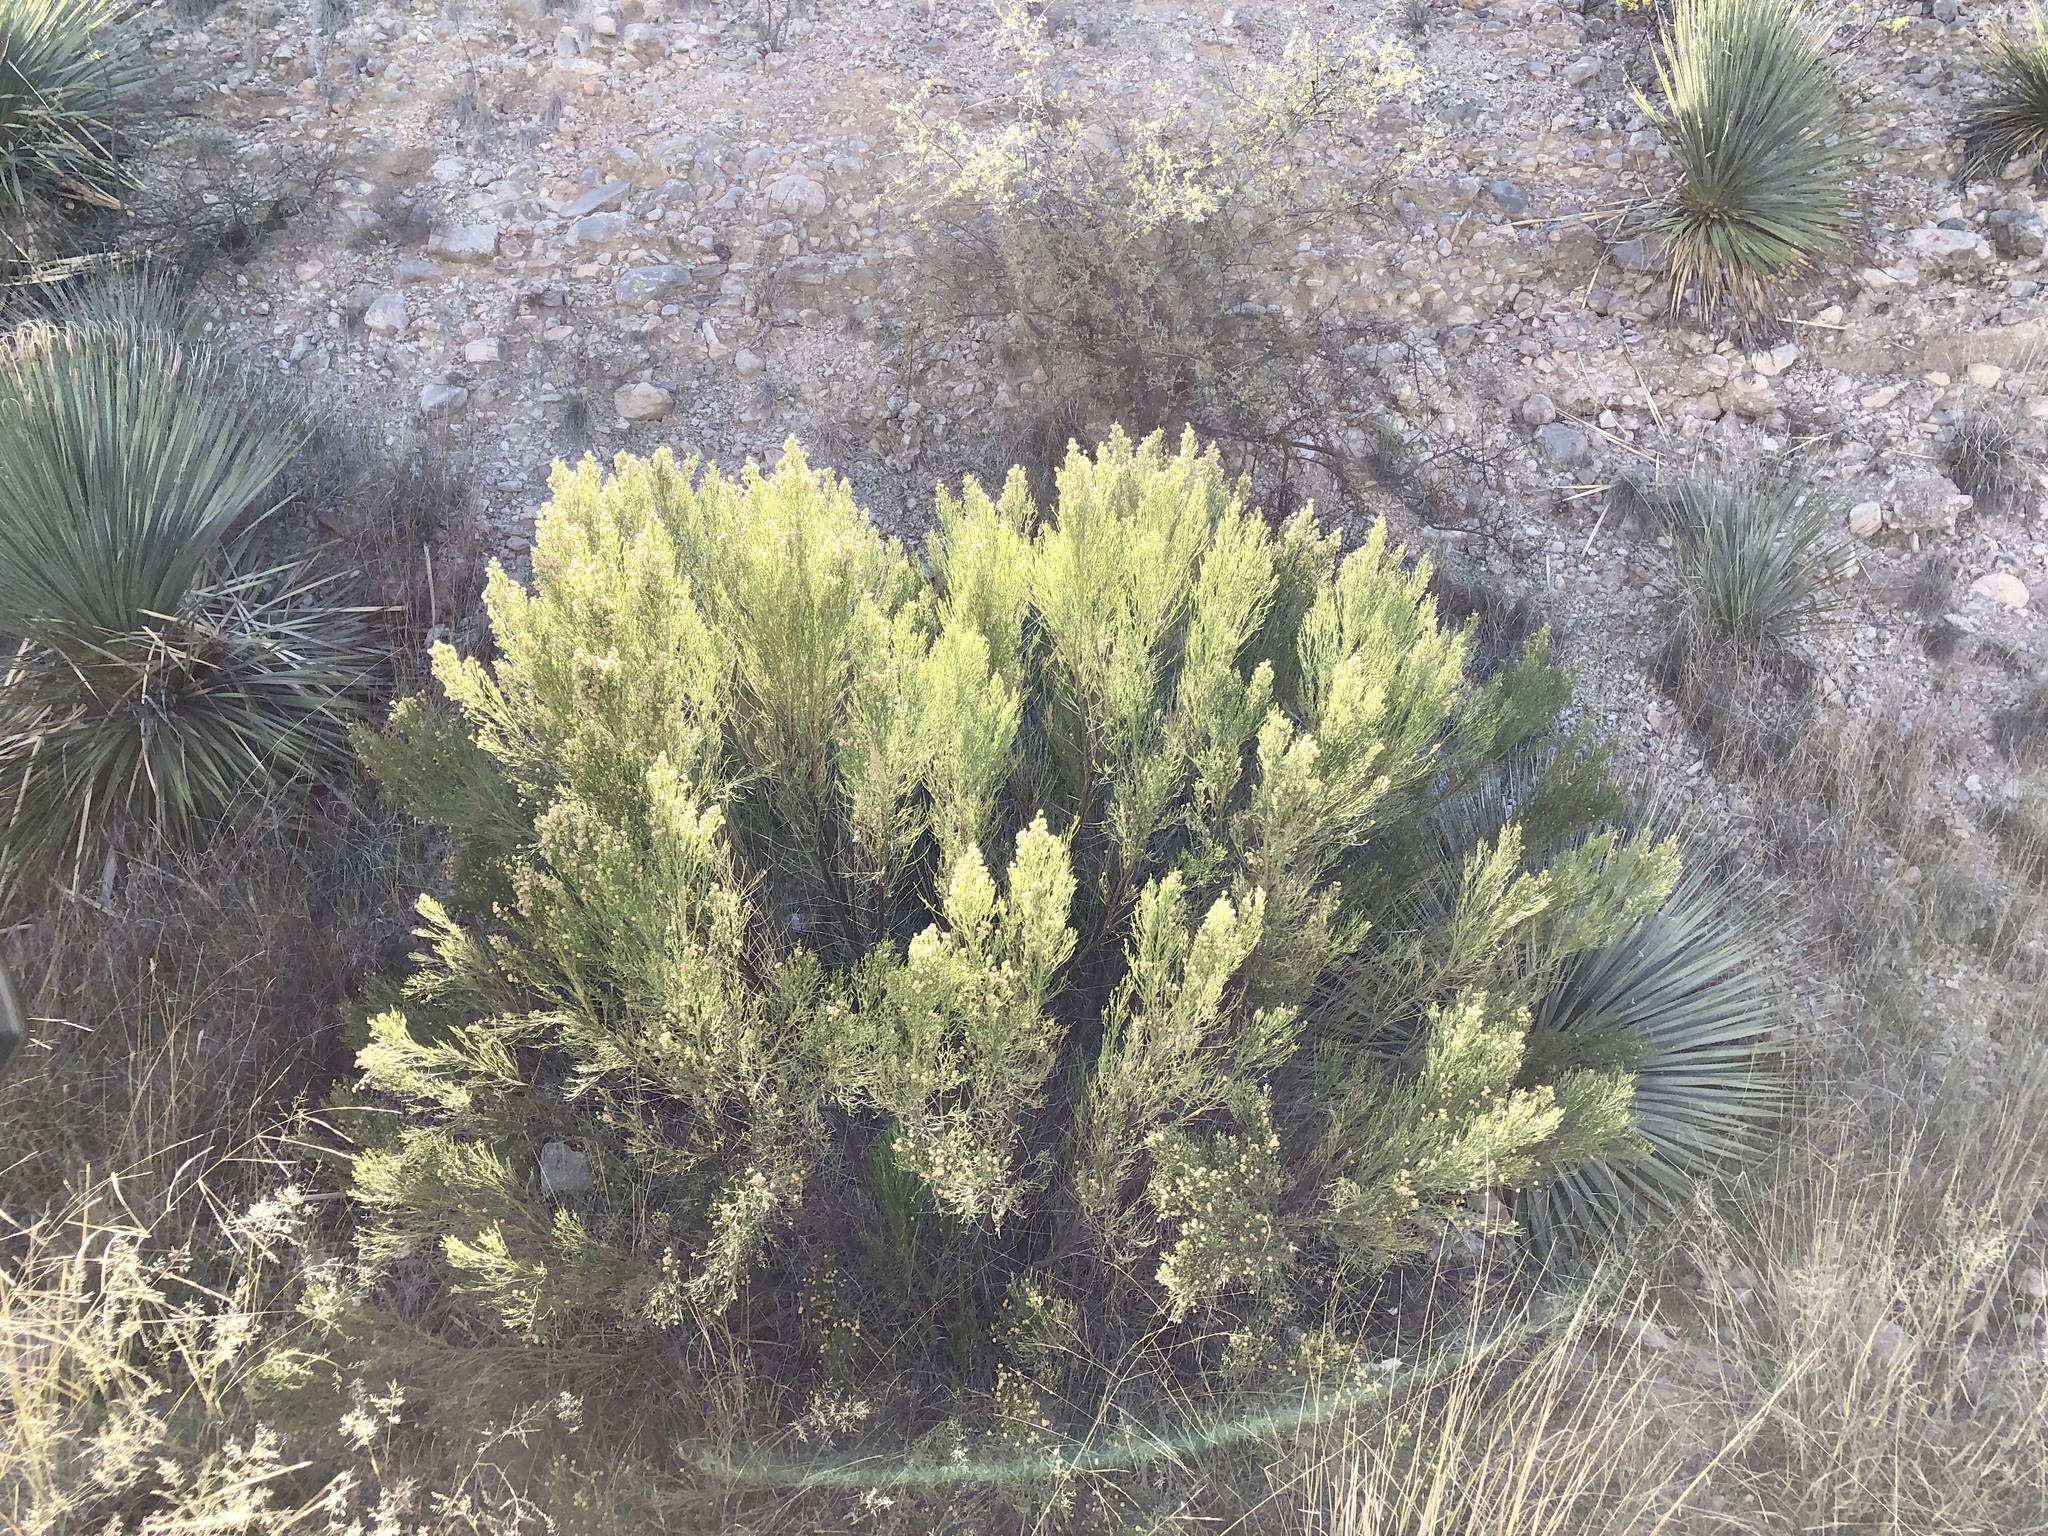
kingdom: Plantae
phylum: Tracheophyta
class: Magnoliopsida
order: Asterales
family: Asteraceae
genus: Baccharis
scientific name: Baccharis sarothroides
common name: Desert-broom
